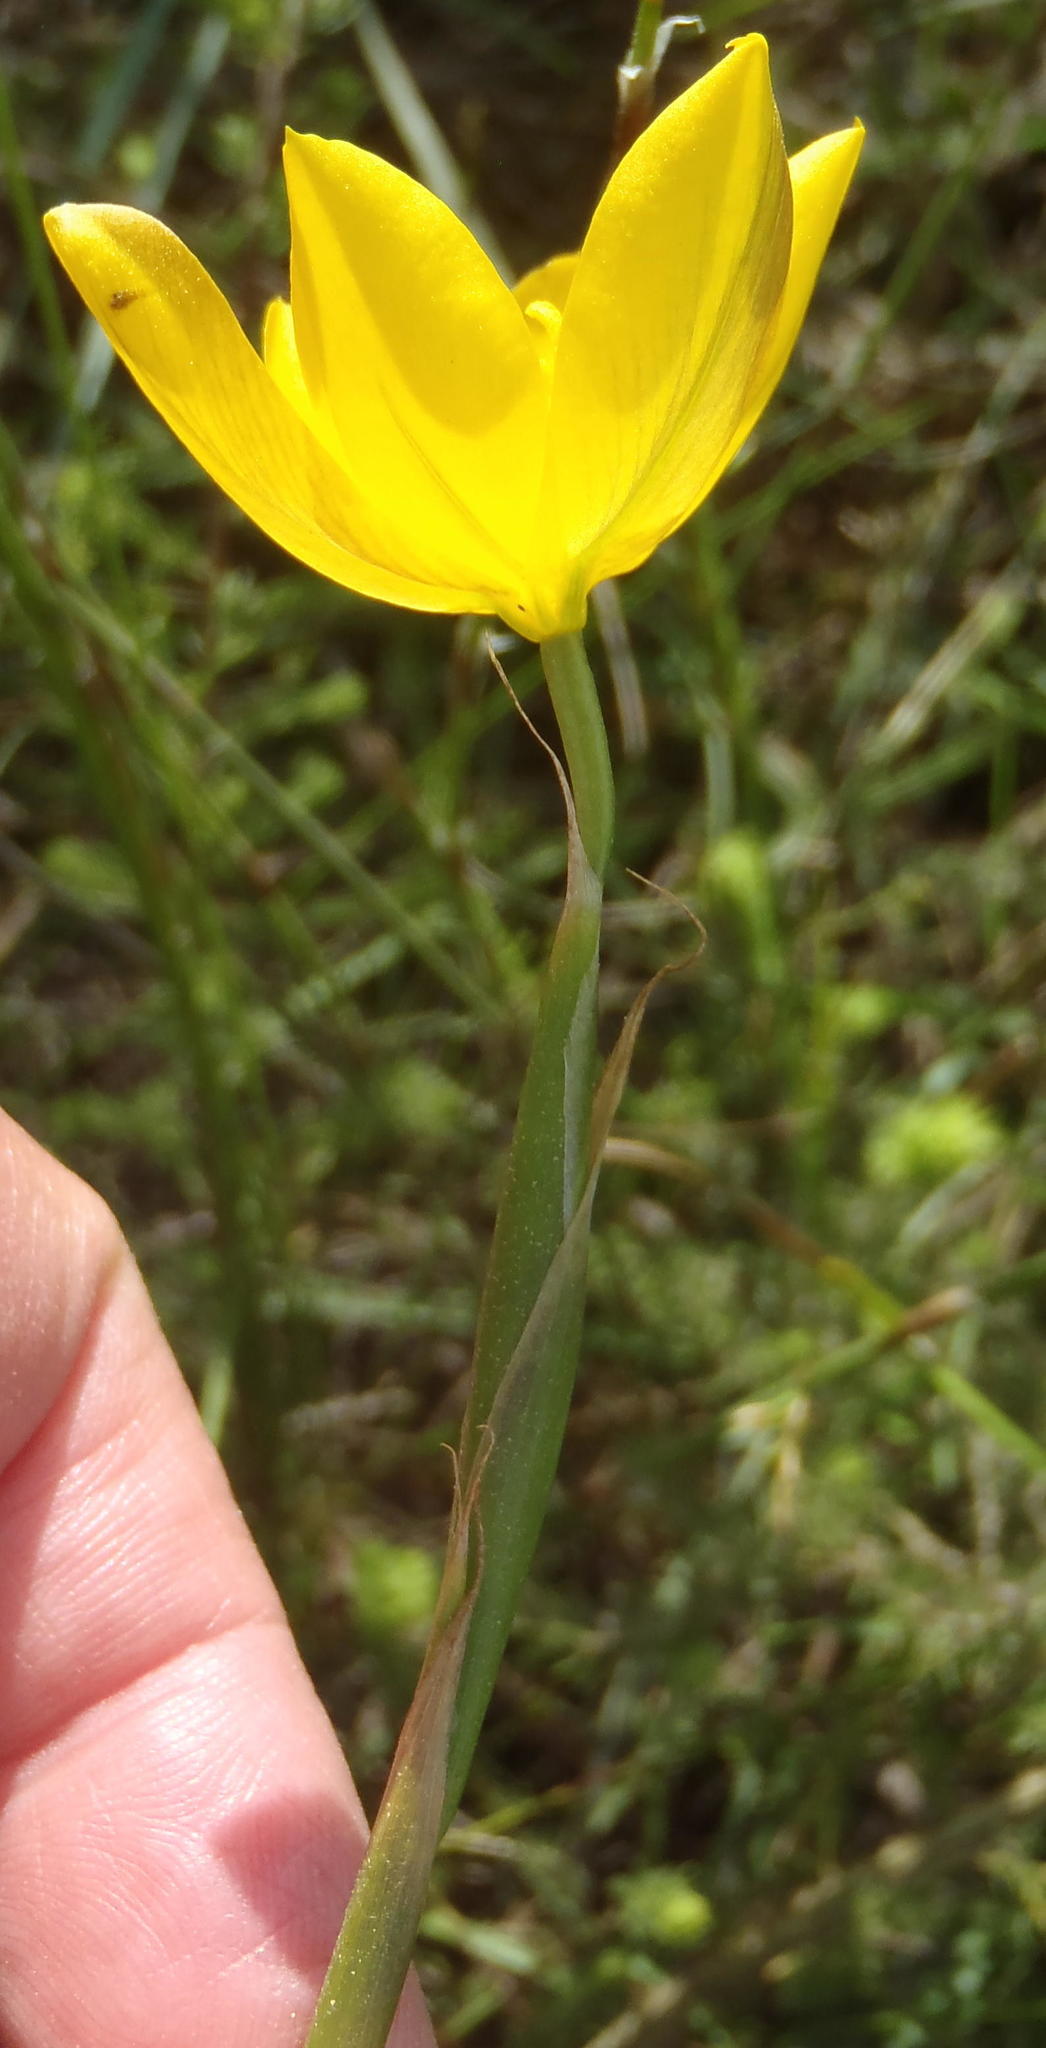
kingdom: Plantae
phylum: Tracheophyta
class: Liliopsida
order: Asparagales
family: Iridaceae
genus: Moraea
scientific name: Moraea lewisiae
